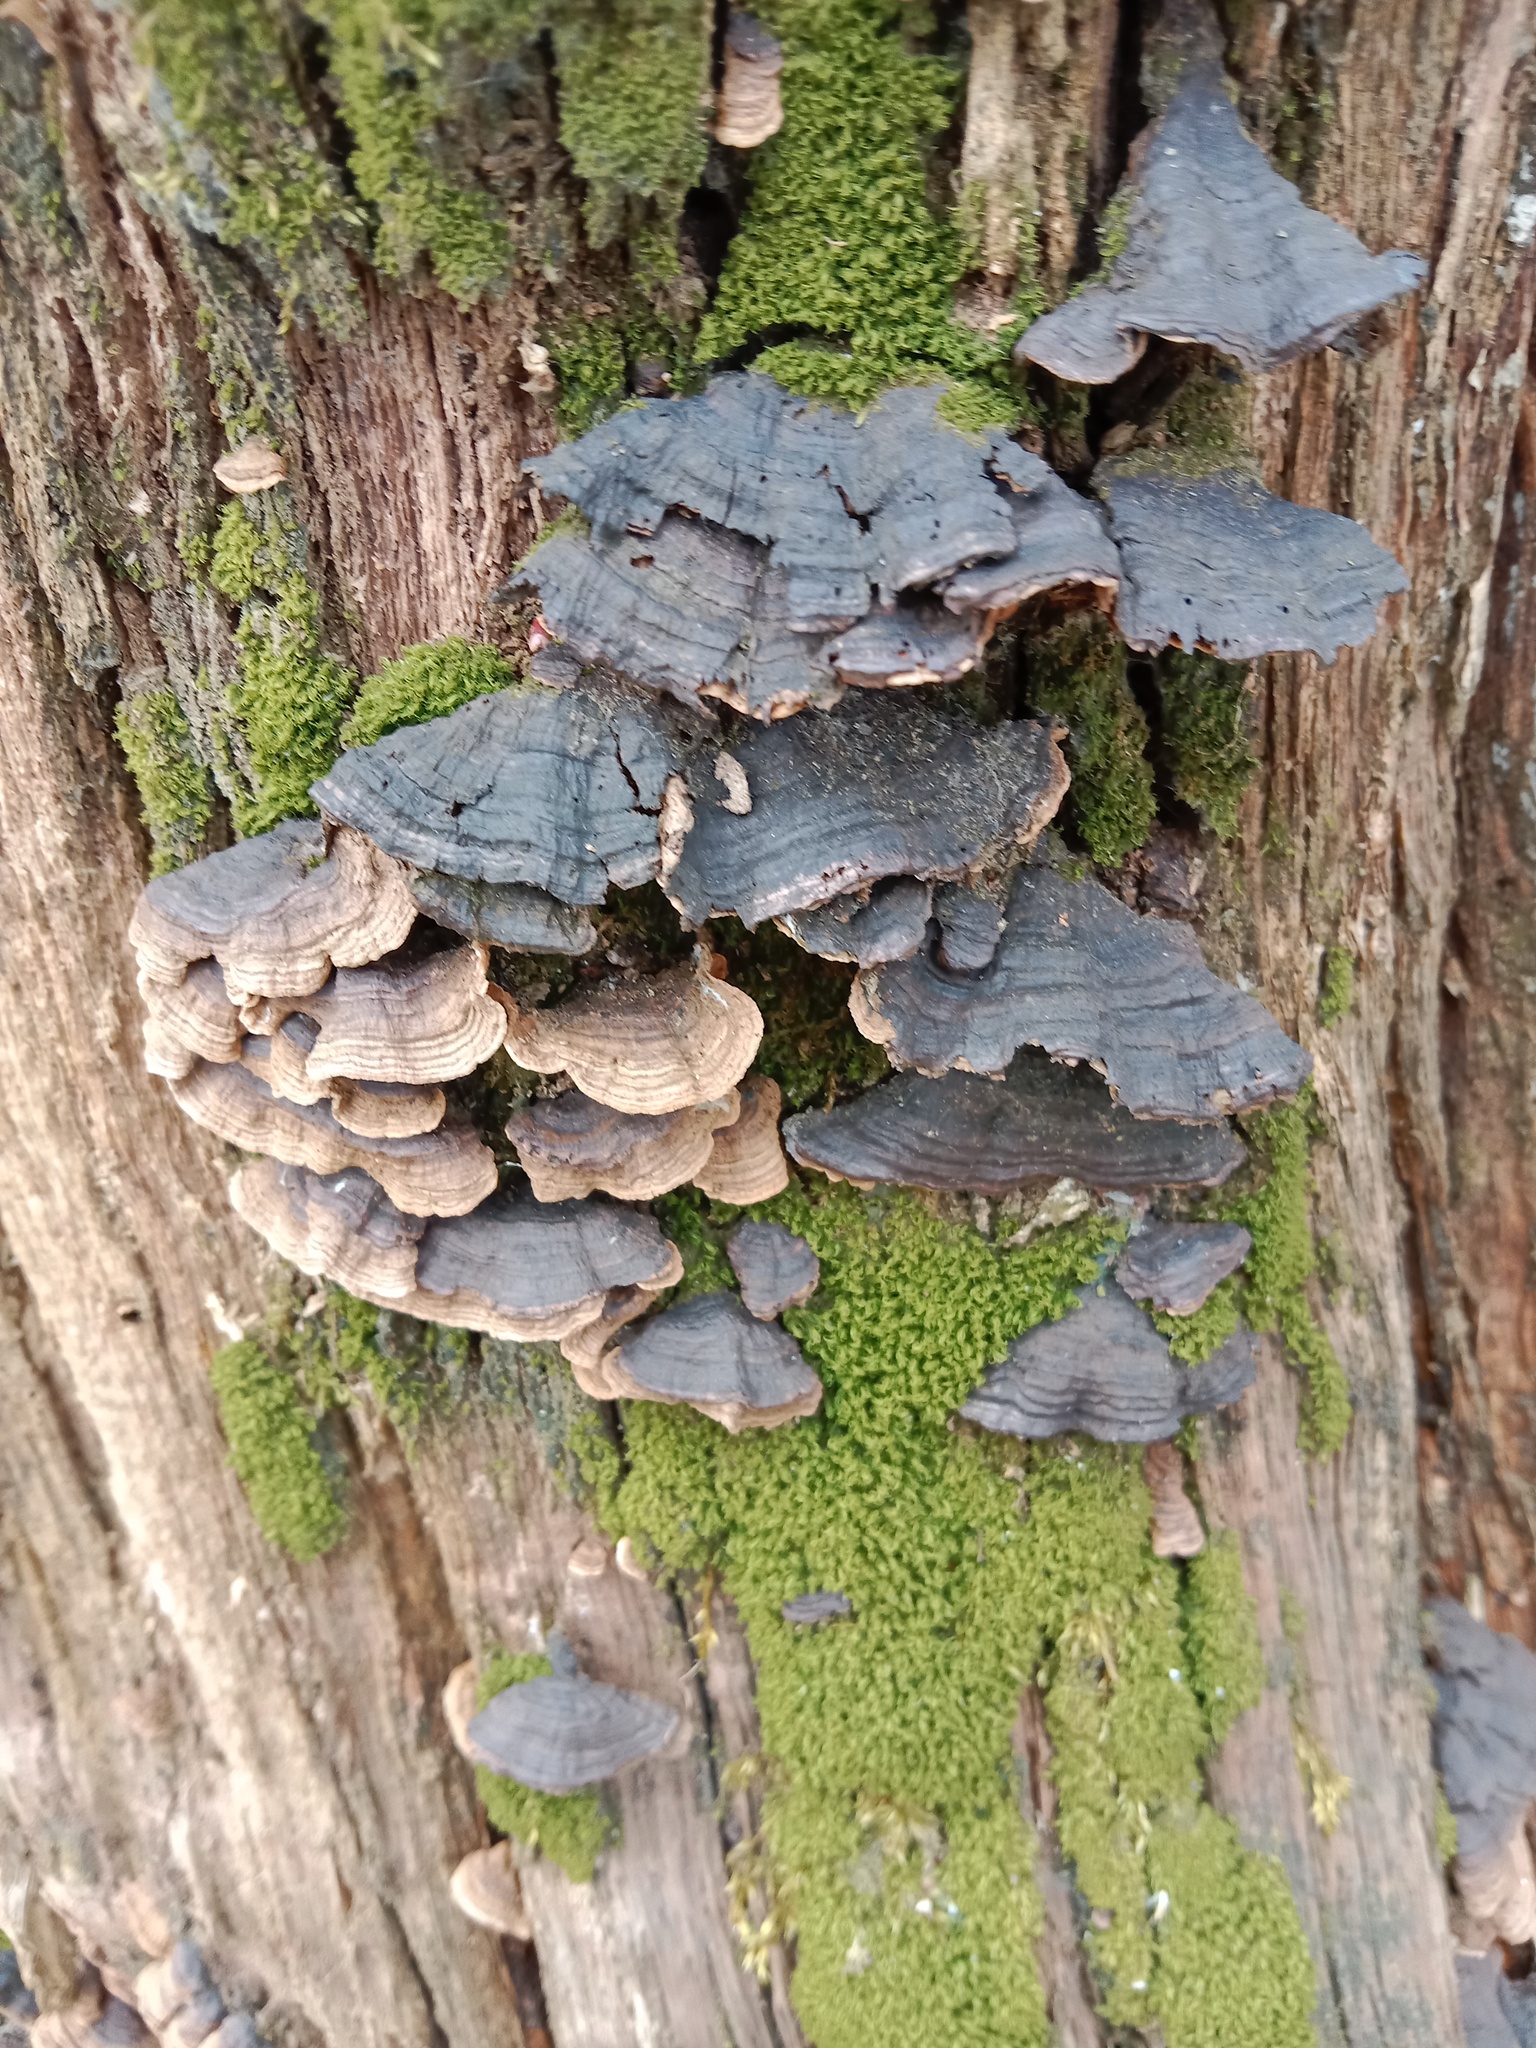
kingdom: Fungi
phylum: Basidiomycota
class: Agaricomycetes
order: Hymenochaetales
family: Hymenochaetaceae
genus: Hymenochaete
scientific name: Hymenochaete rubiginosa
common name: Oak curtain crust
